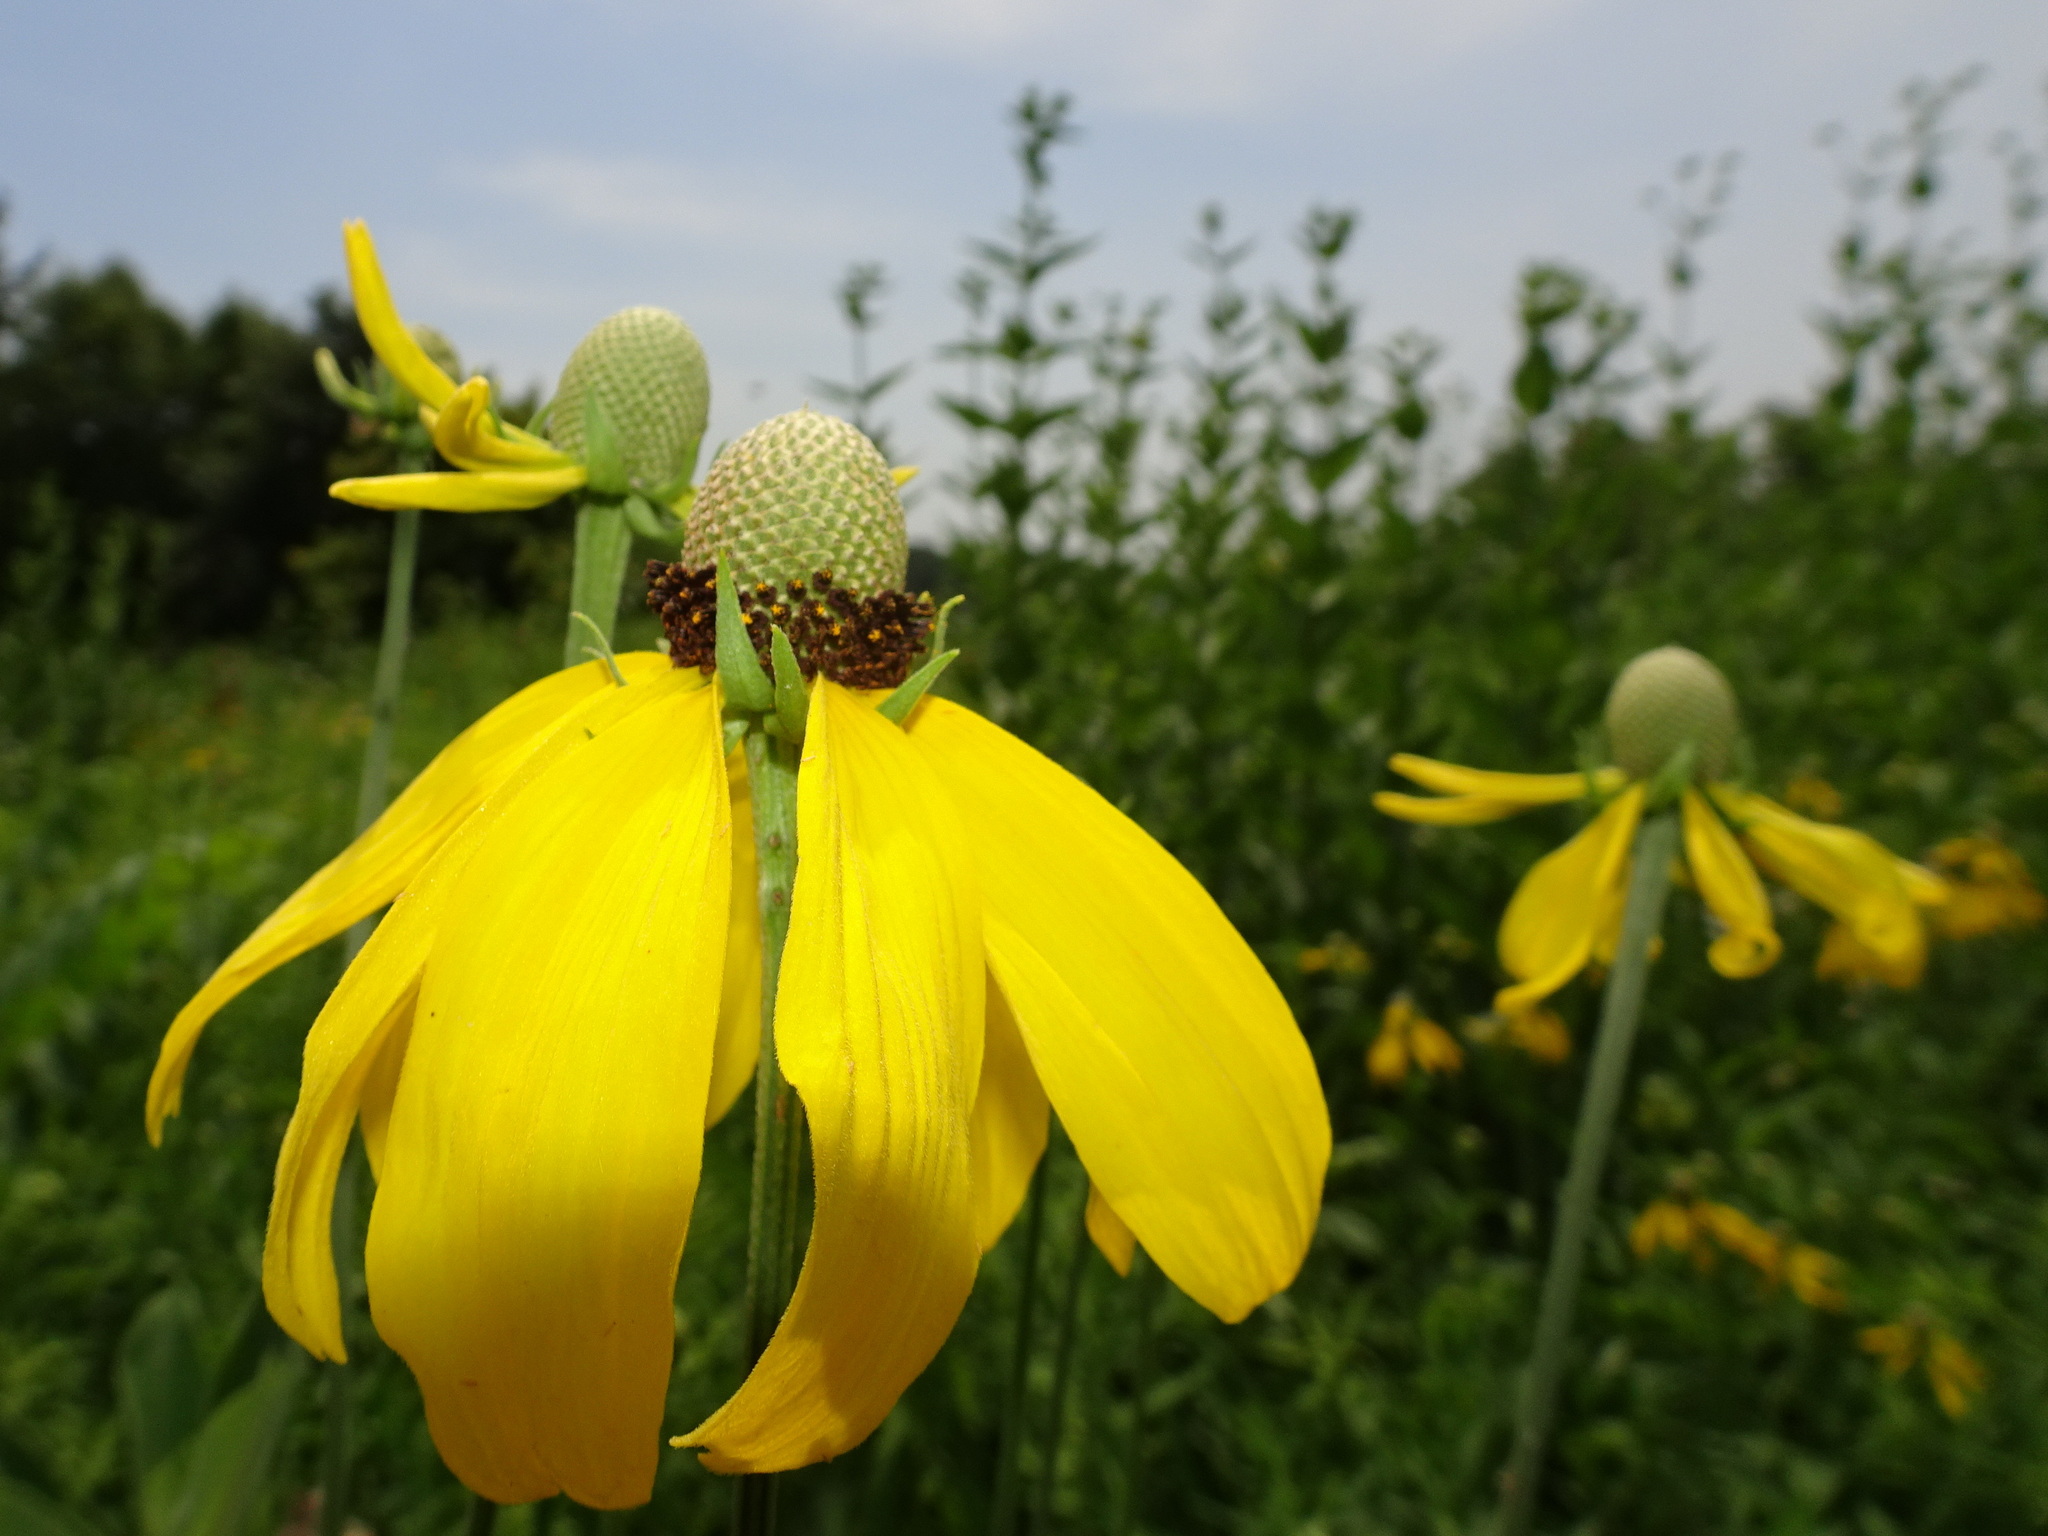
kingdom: Plantae
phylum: Tracheophyta
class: Magnoliopsida
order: Asterales
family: Asteraceae
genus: Ratibida
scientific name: Ratibida pinnata
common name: Drooping prairie-coneflower
